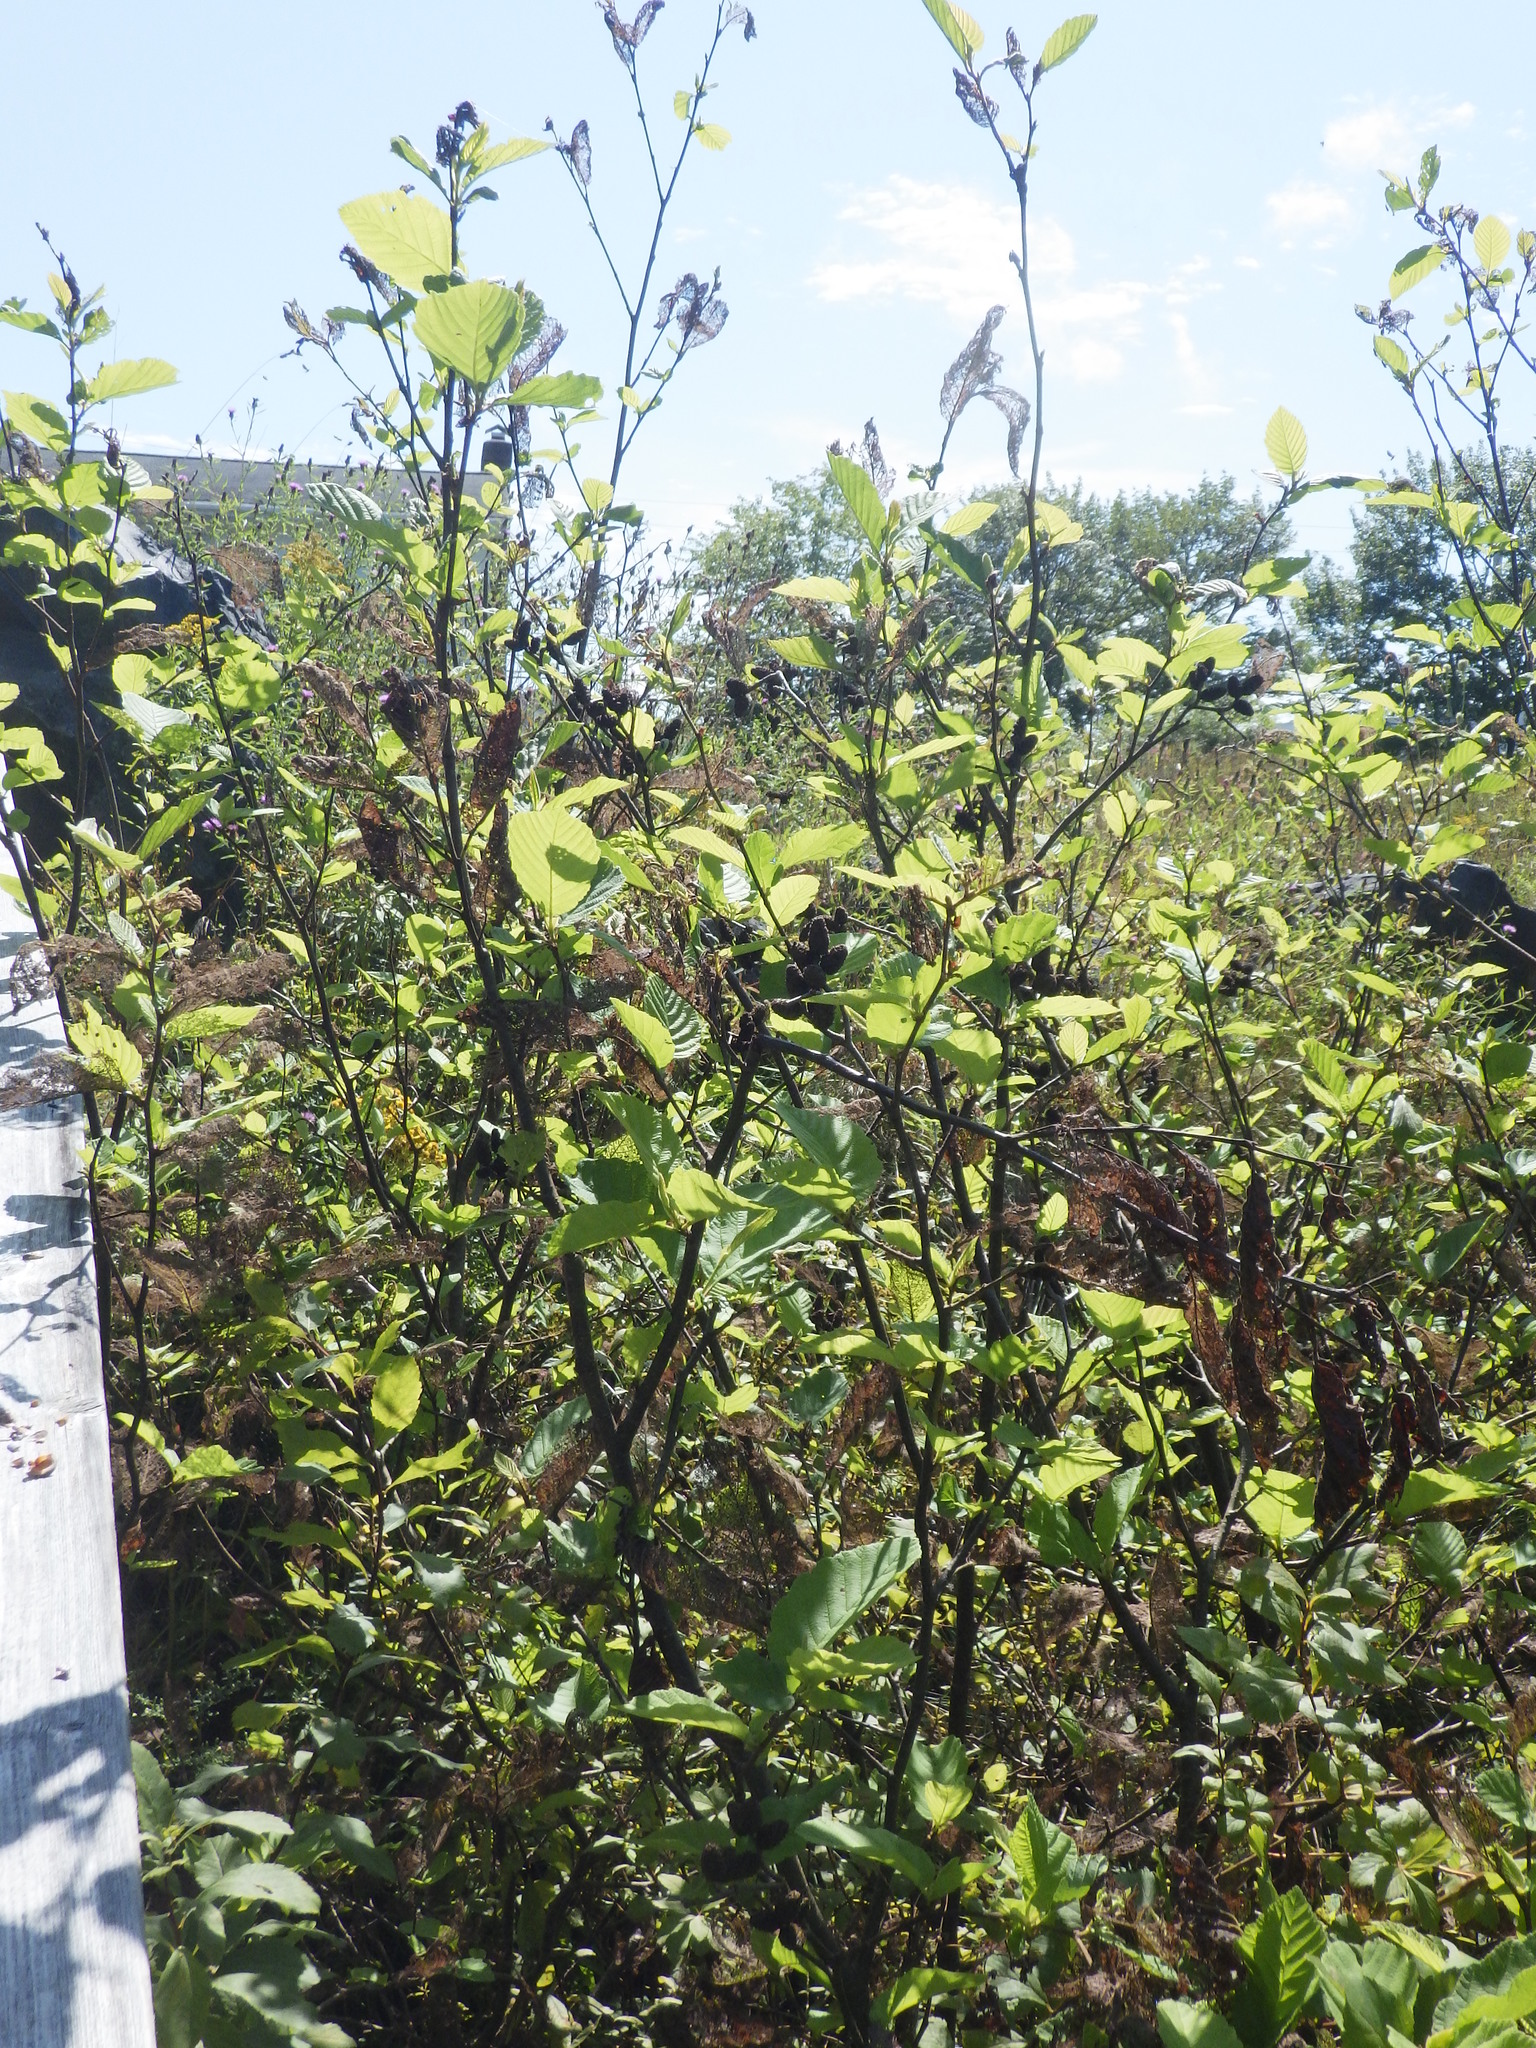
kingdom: Plantae
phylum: Tracheophyta
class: Magnoliopsida
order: Fagales
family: Betulaceae
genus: Alnus
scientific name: Alnus incana
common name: Grey alder
